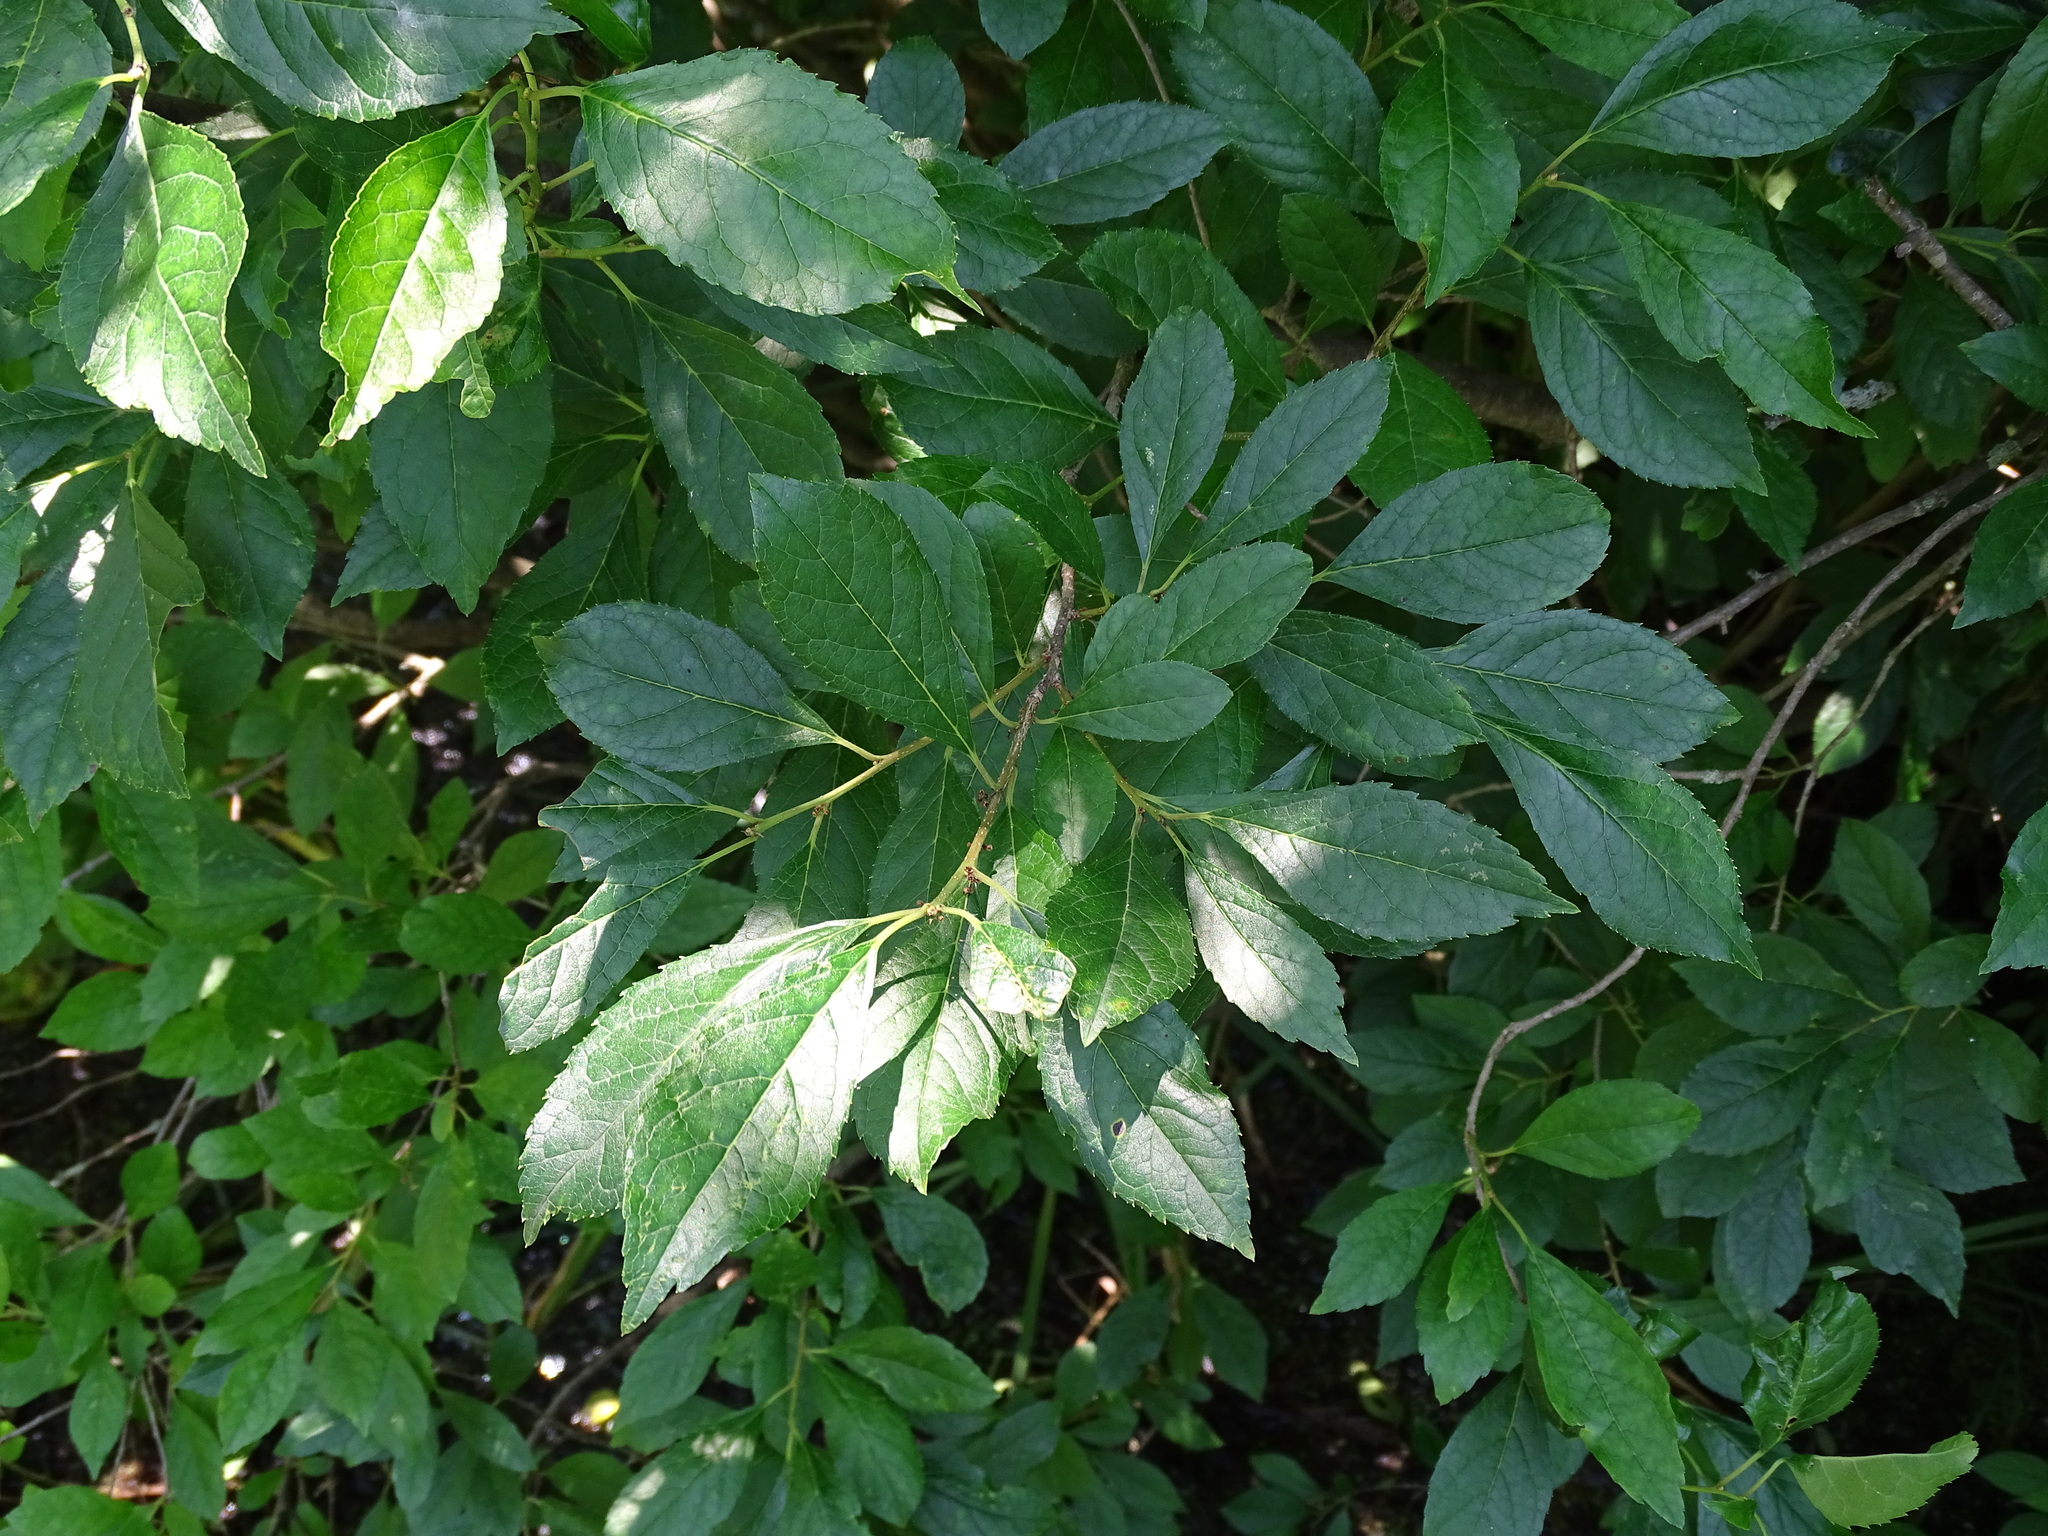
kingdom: Plantae
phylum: Tracheophyta
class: Magnoliopsida
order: Aquifoliales
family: Aquifoliaceae
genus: Ilex
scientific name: Ilex verticillata
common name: Virginia winterberry
